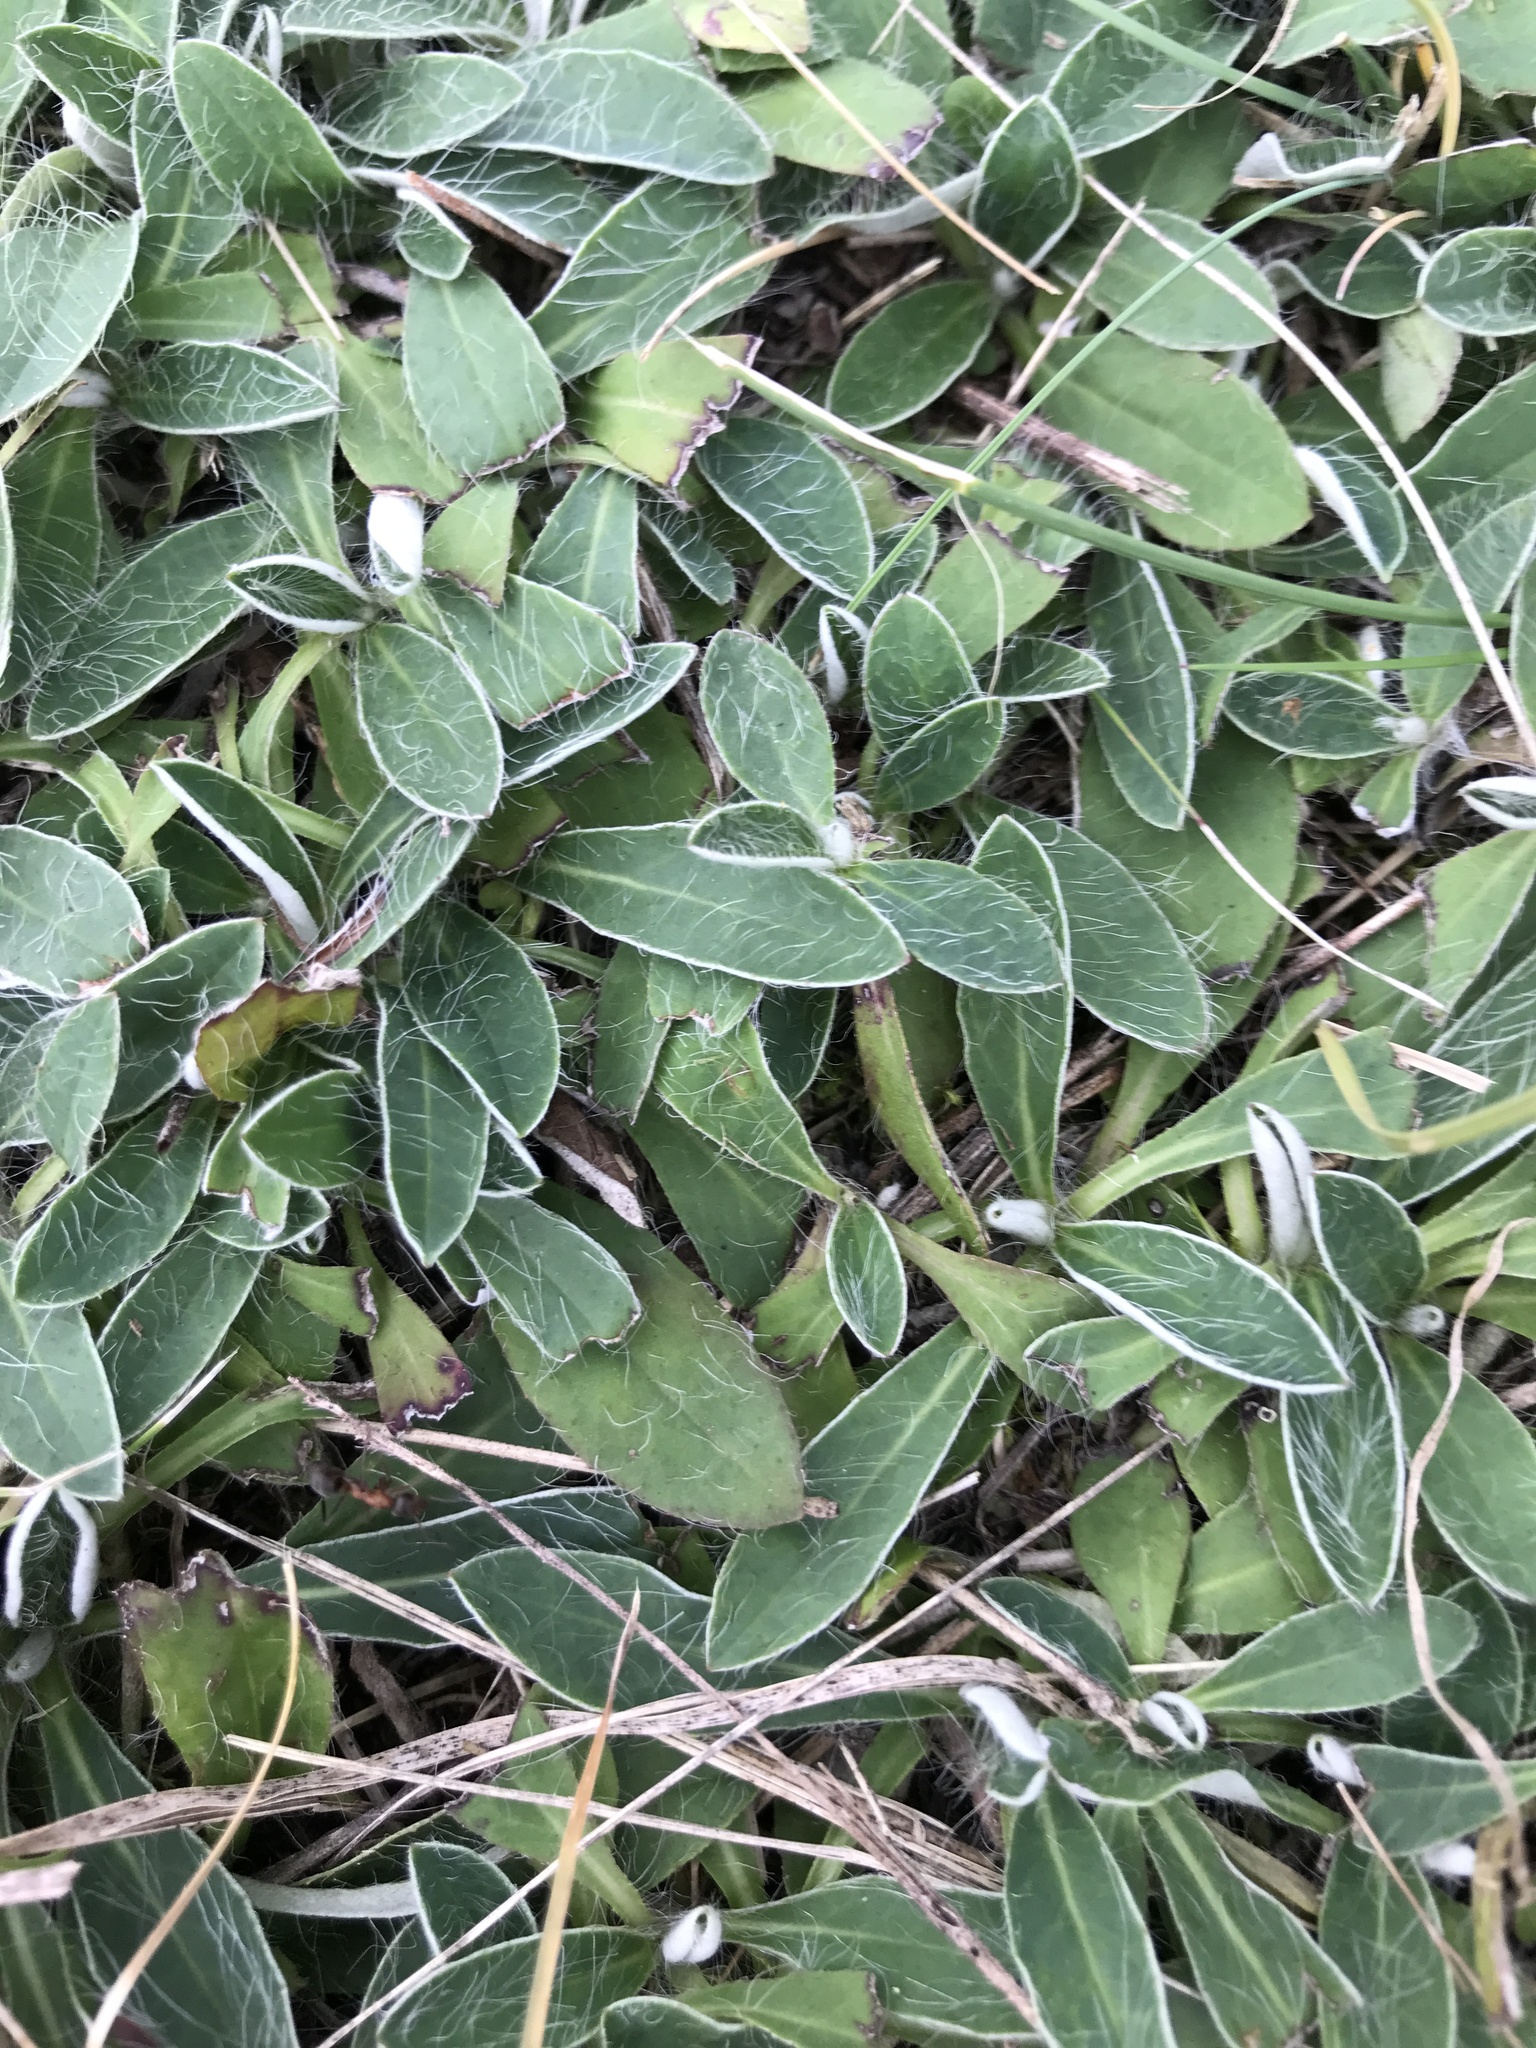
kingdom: Plantae
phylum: Tracheophyta
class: Magnoliopsida
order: Asterales
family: Asteraceae
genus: Pilosella
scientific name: Pilosella officinarum
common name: Mouse-ear hawkweed
